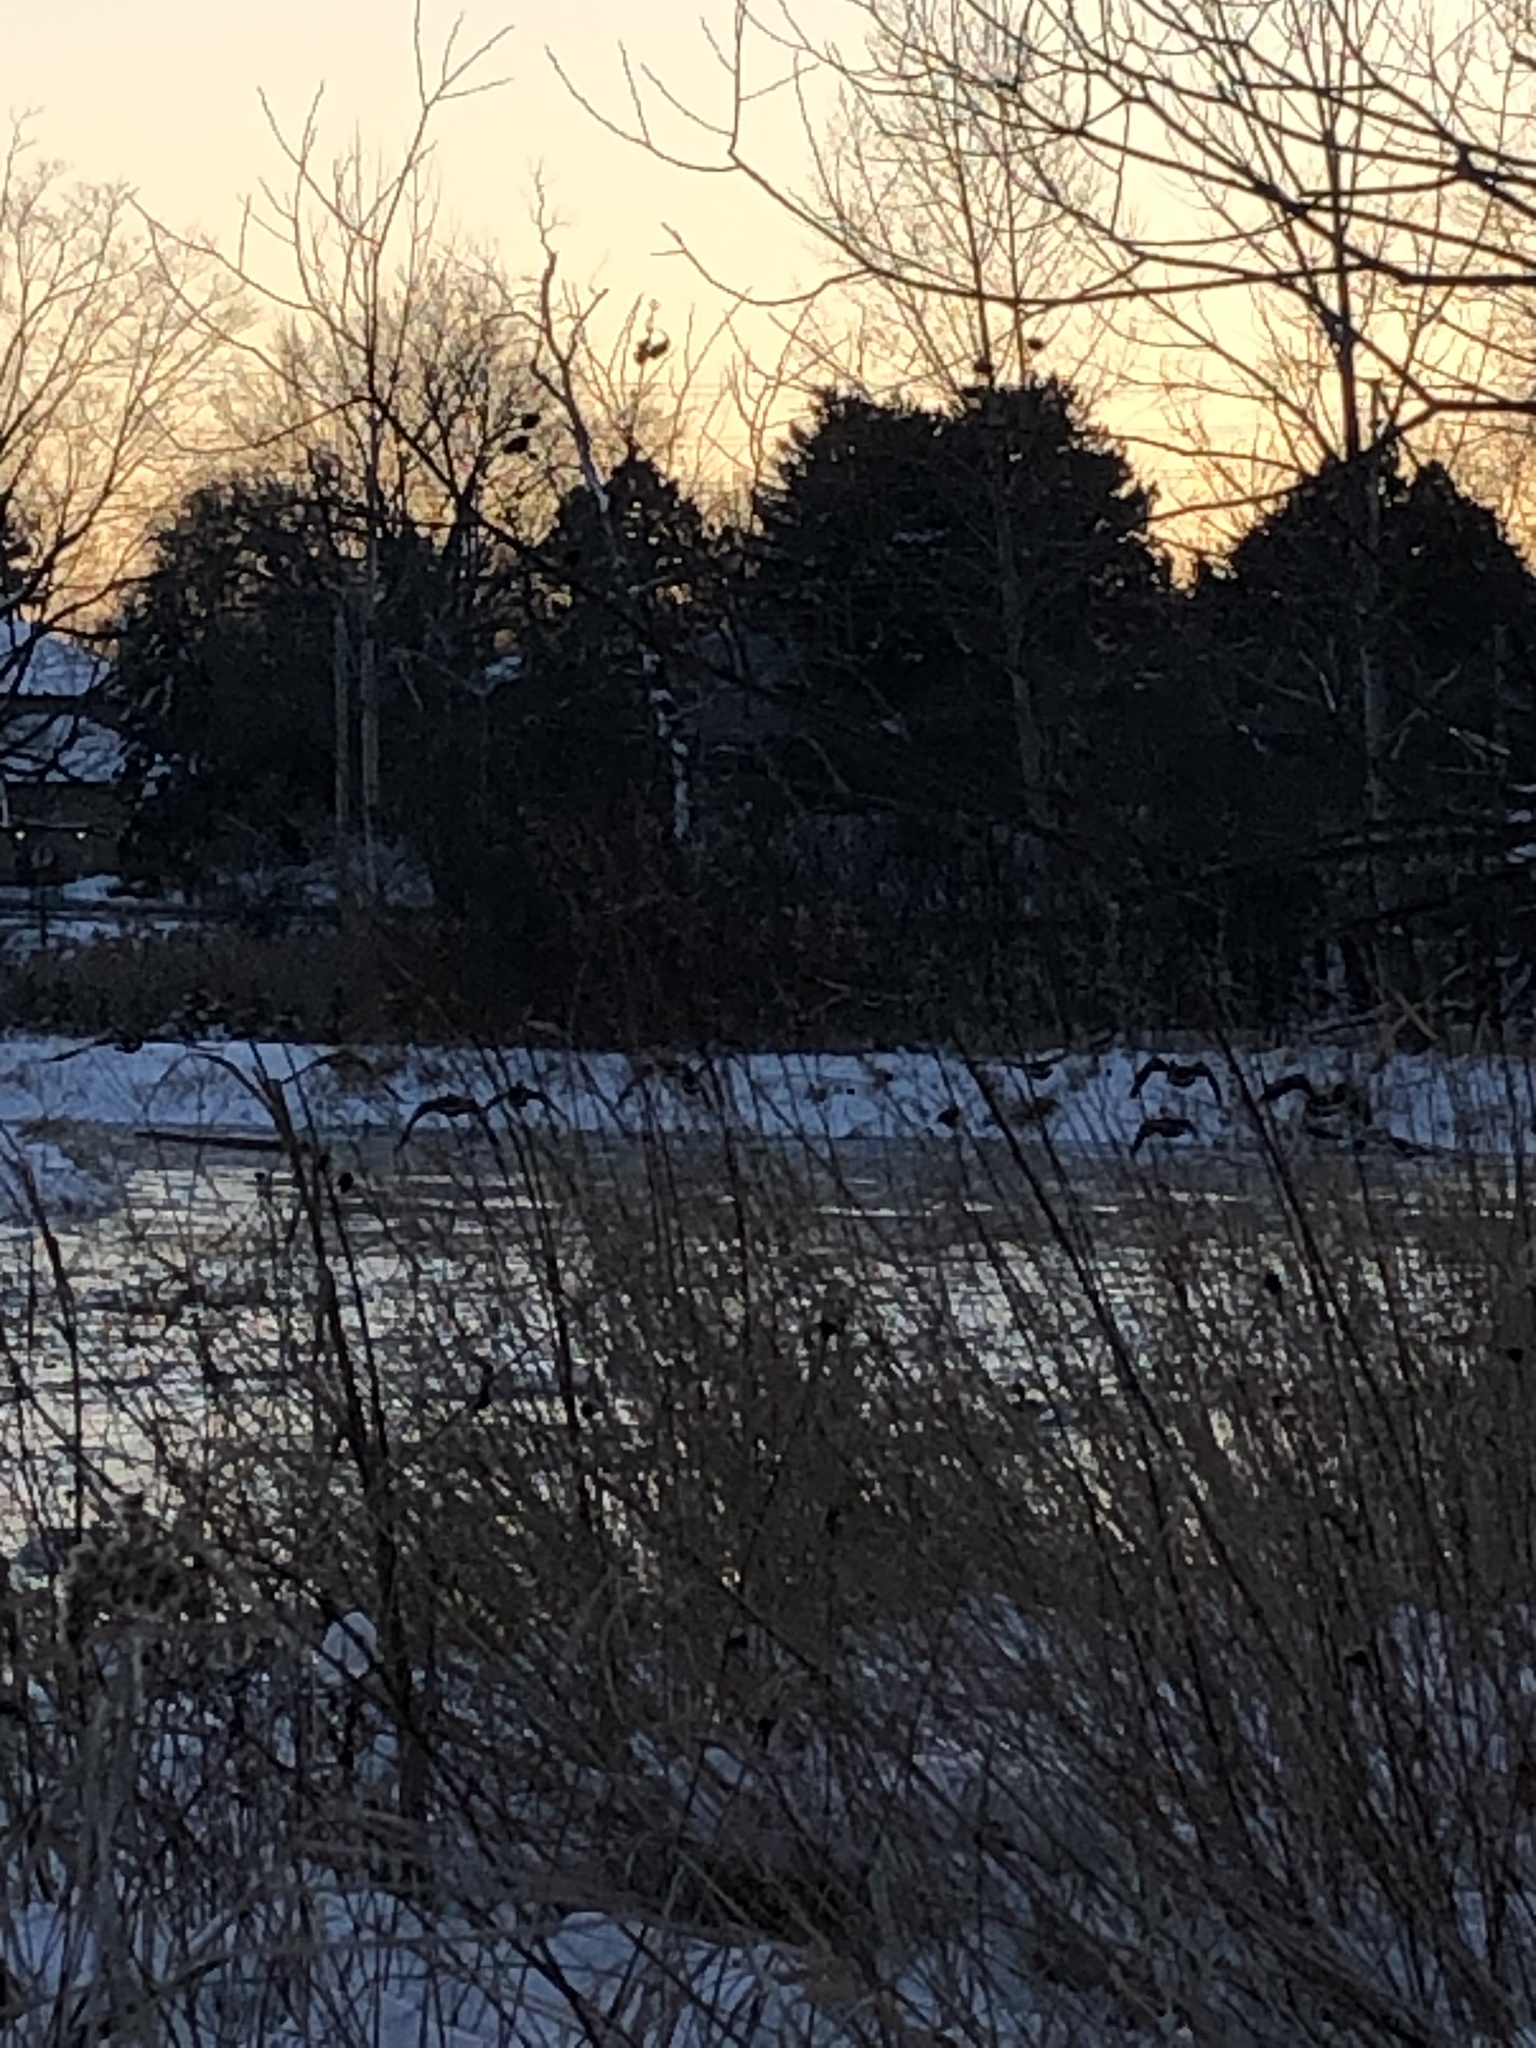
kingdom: Animalia
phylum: Chordata
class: Aves
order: Anseriformes
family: Anatidae
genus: Branta
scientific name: Branta canadensis
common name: Canada goose
